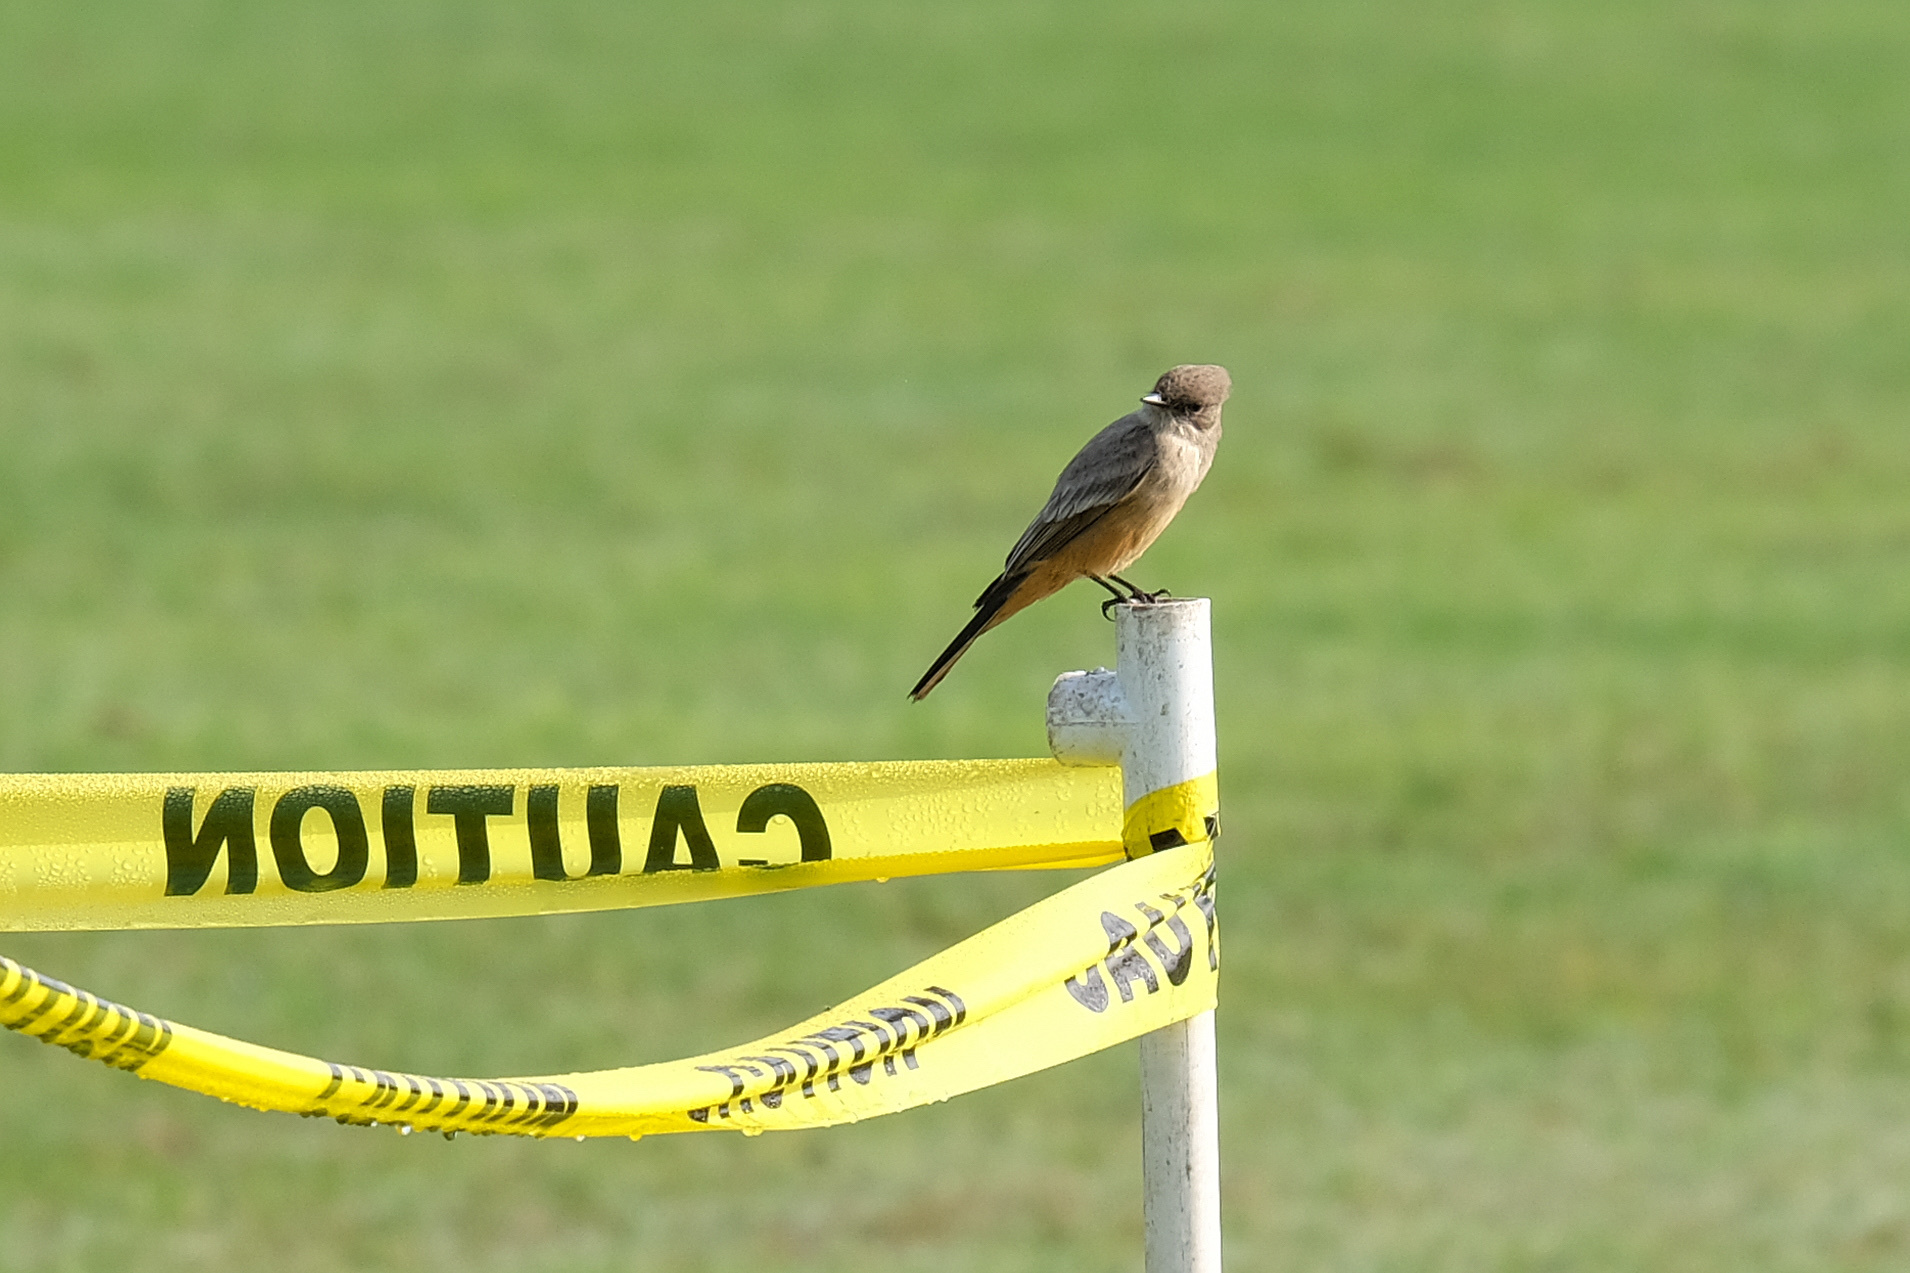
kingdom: Animalia
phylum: Chordata
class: Aves
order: Passeriformes
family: Tyrannidae
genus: Sayornis
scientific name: Sayornis saya
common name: Say's phoebe
